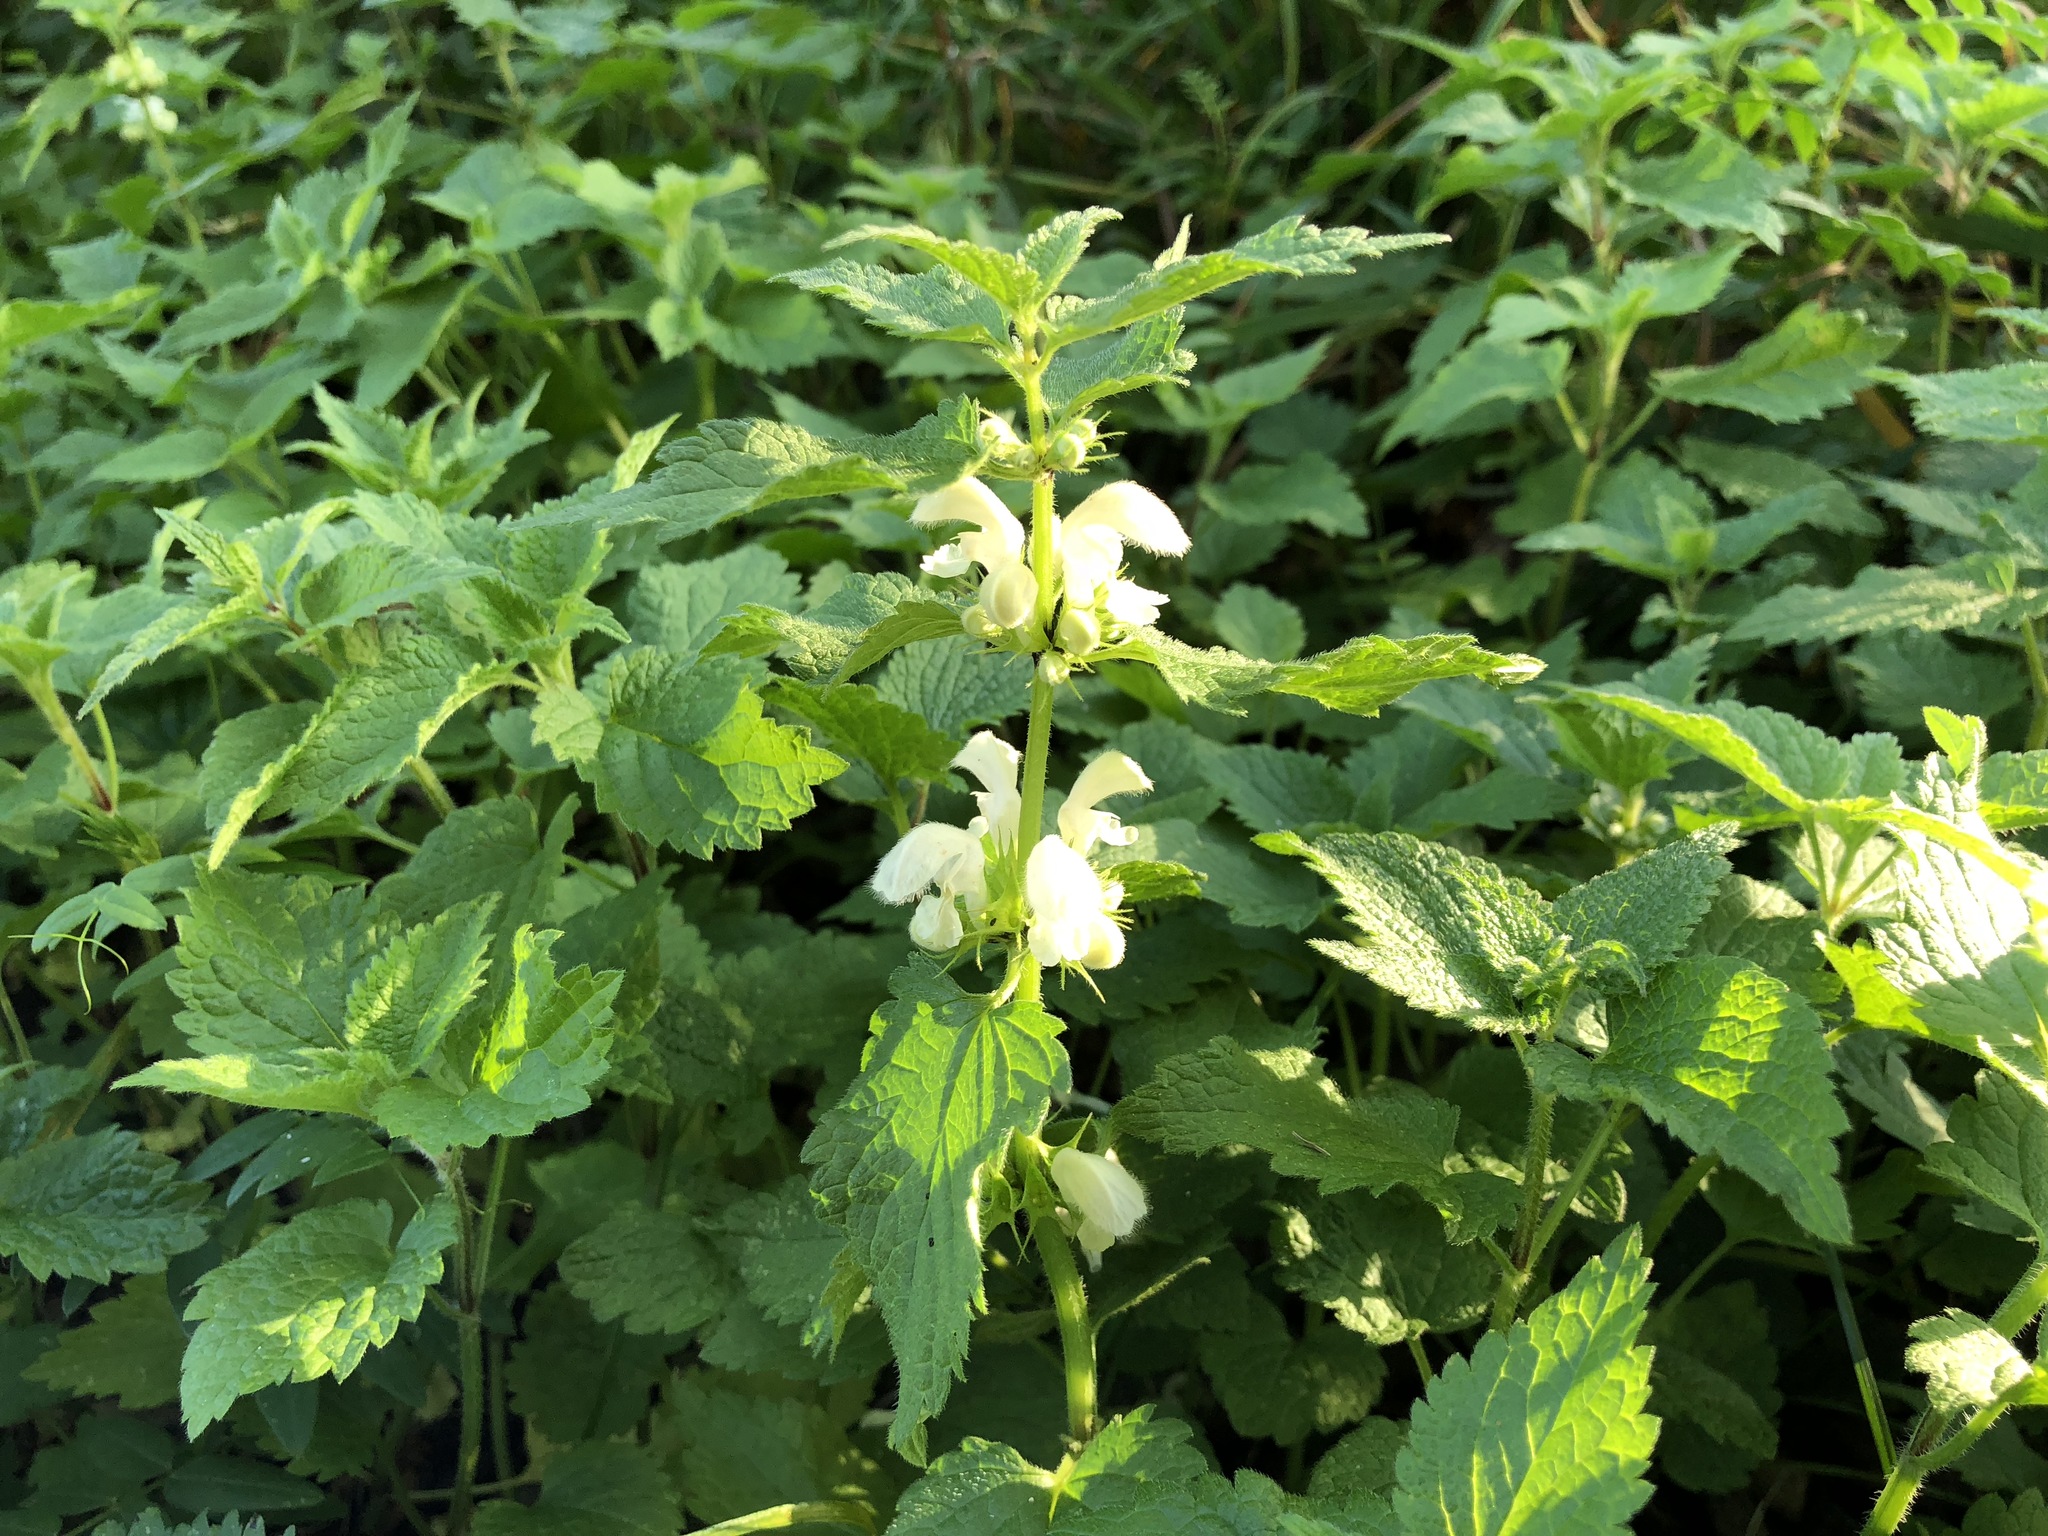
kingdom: Plantae
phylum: Tracheophyta
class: Magnoliopsida
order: Lamiales
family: Lamiaceae
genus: Lamium
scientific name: Lamium album
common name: White dead-nettle
